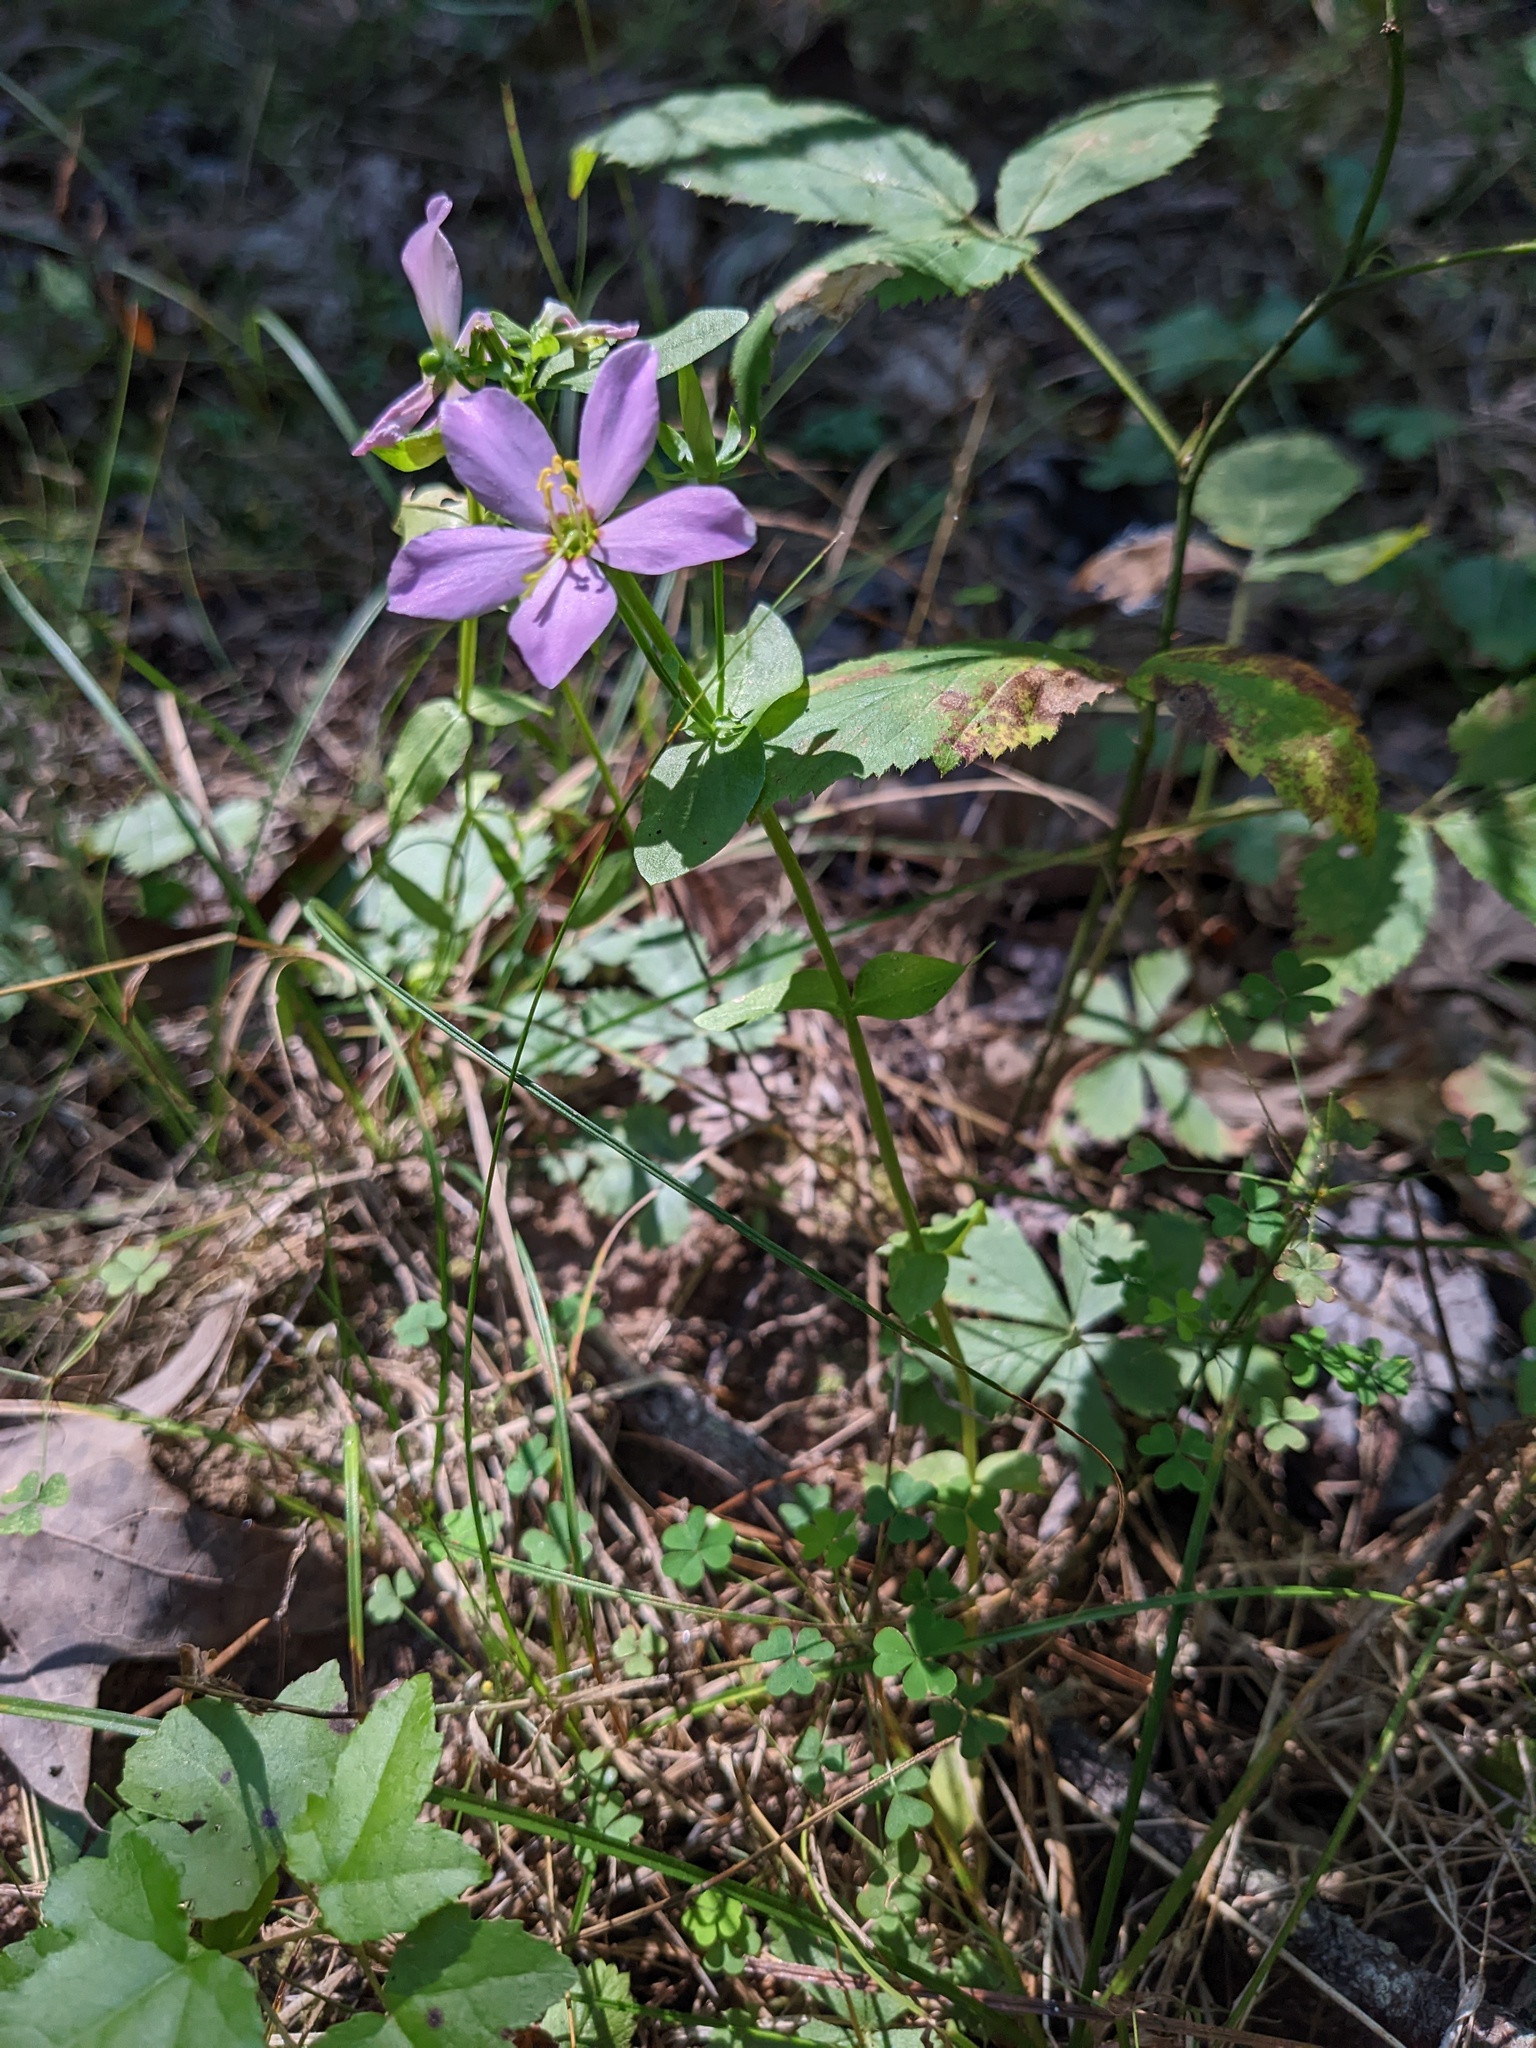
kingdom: Plantae
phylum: Tracheophyta
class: Magnoliopsida
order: Gentianales
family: Gentianaceae
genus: Sabatia
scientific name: Sabatia angularis
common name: Rose-pink
